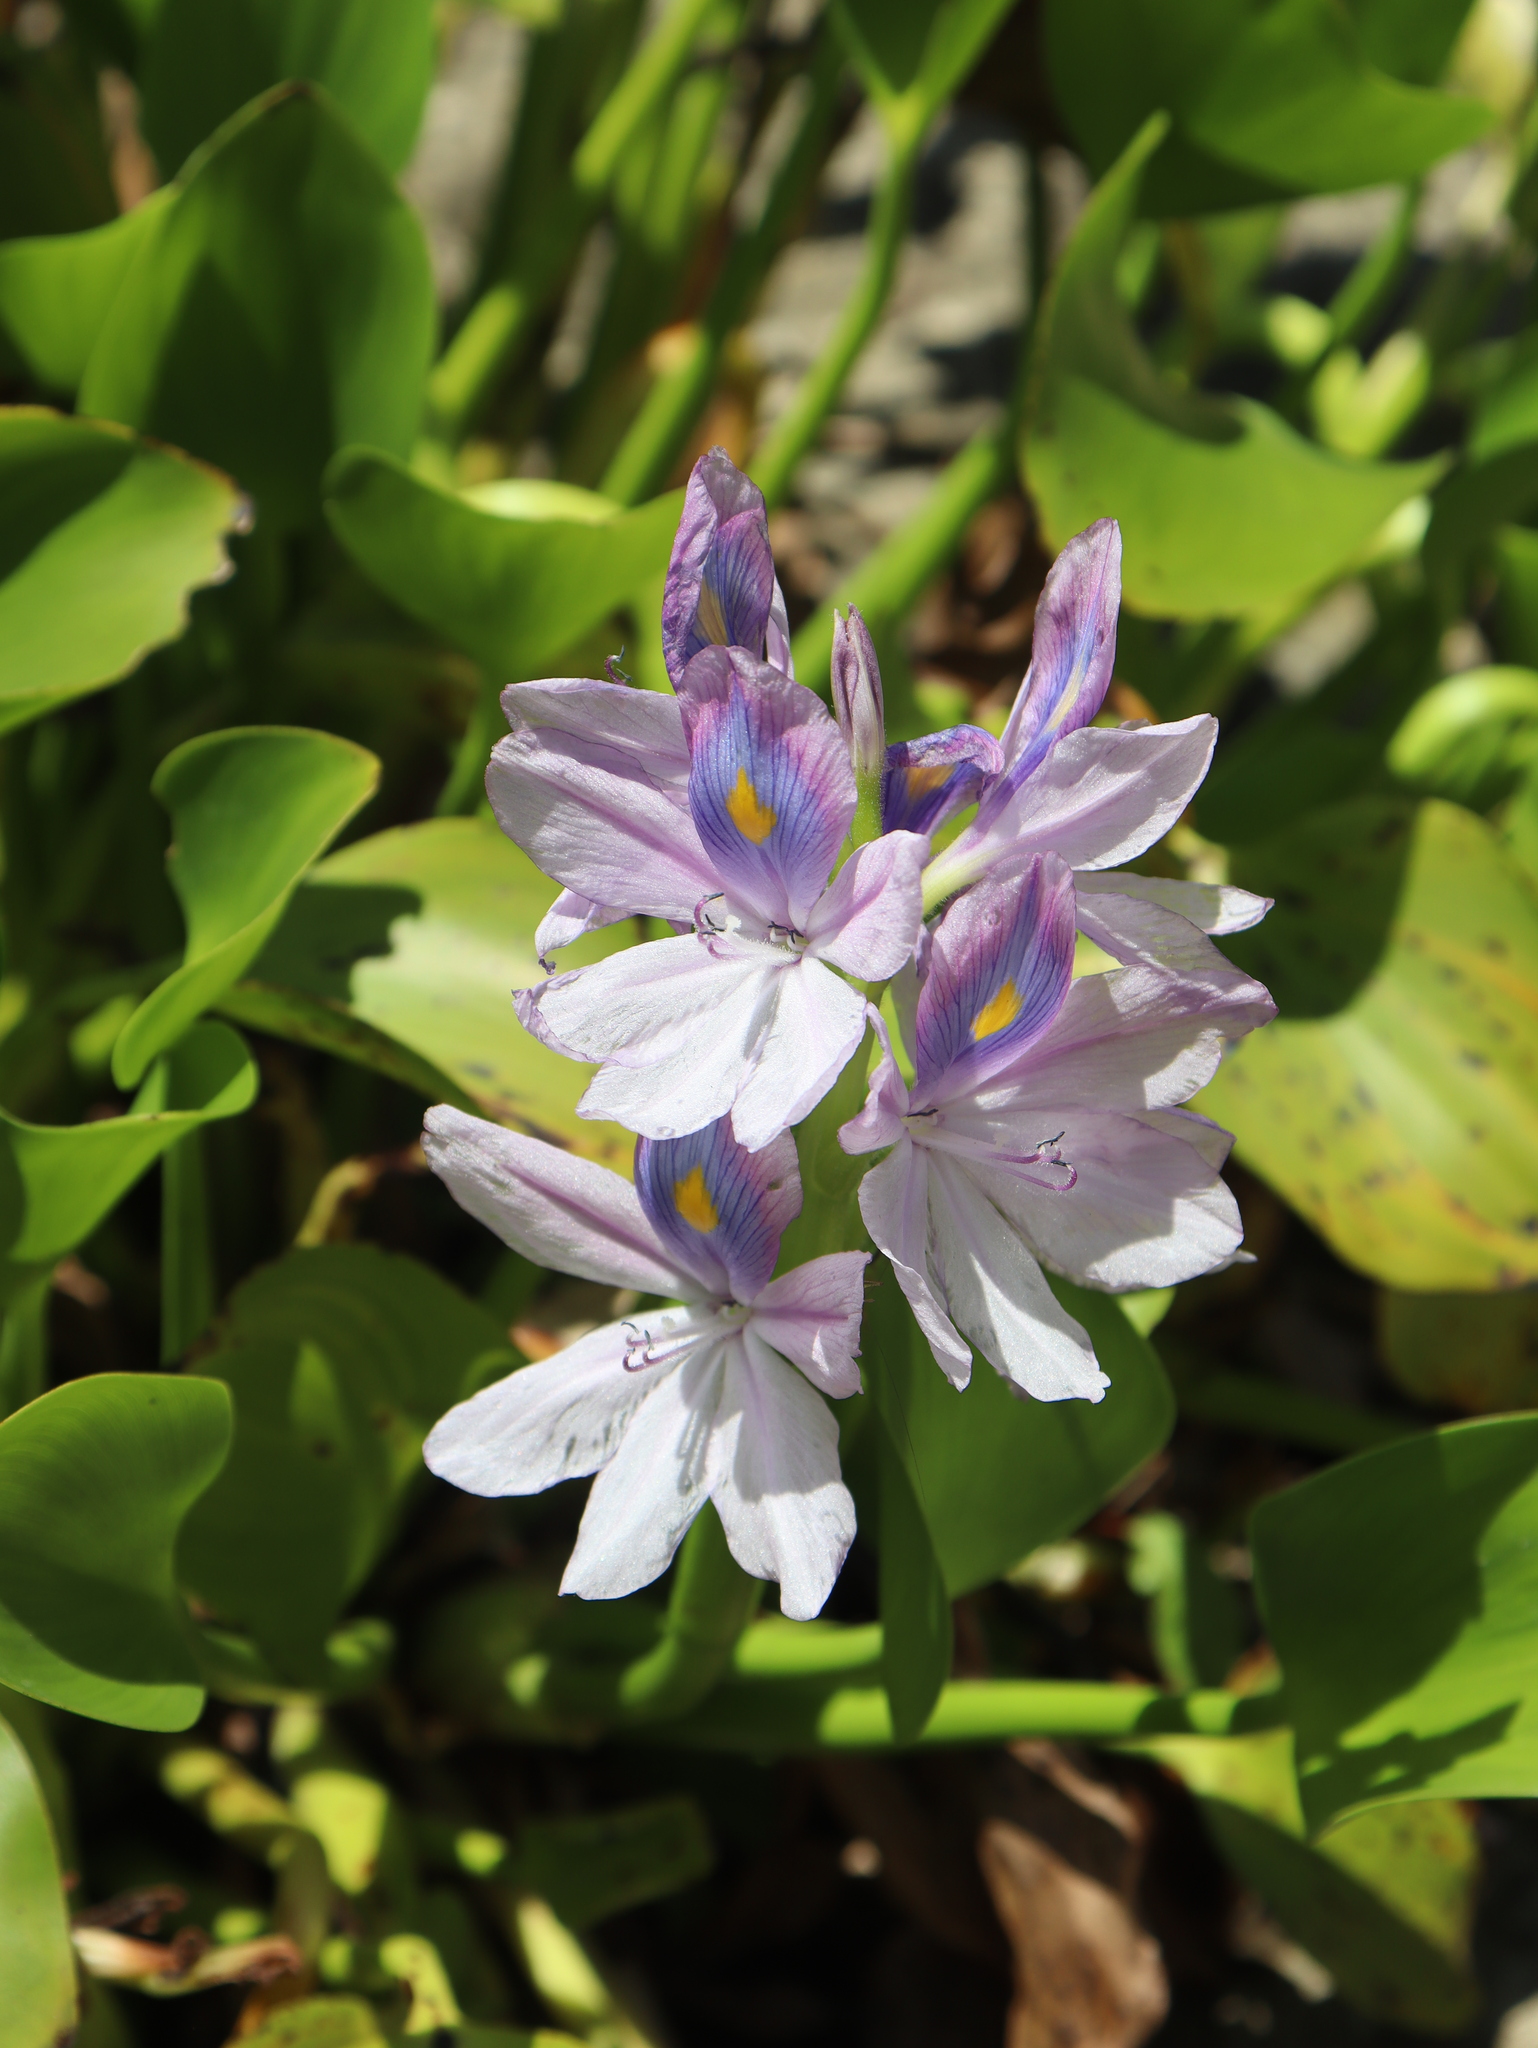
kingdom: Plantae
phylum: Tracheophyta
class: Liliopsida
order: Commelinales
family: Pontederiaceae
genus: Pontederia
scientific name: Pontederia crassipes
